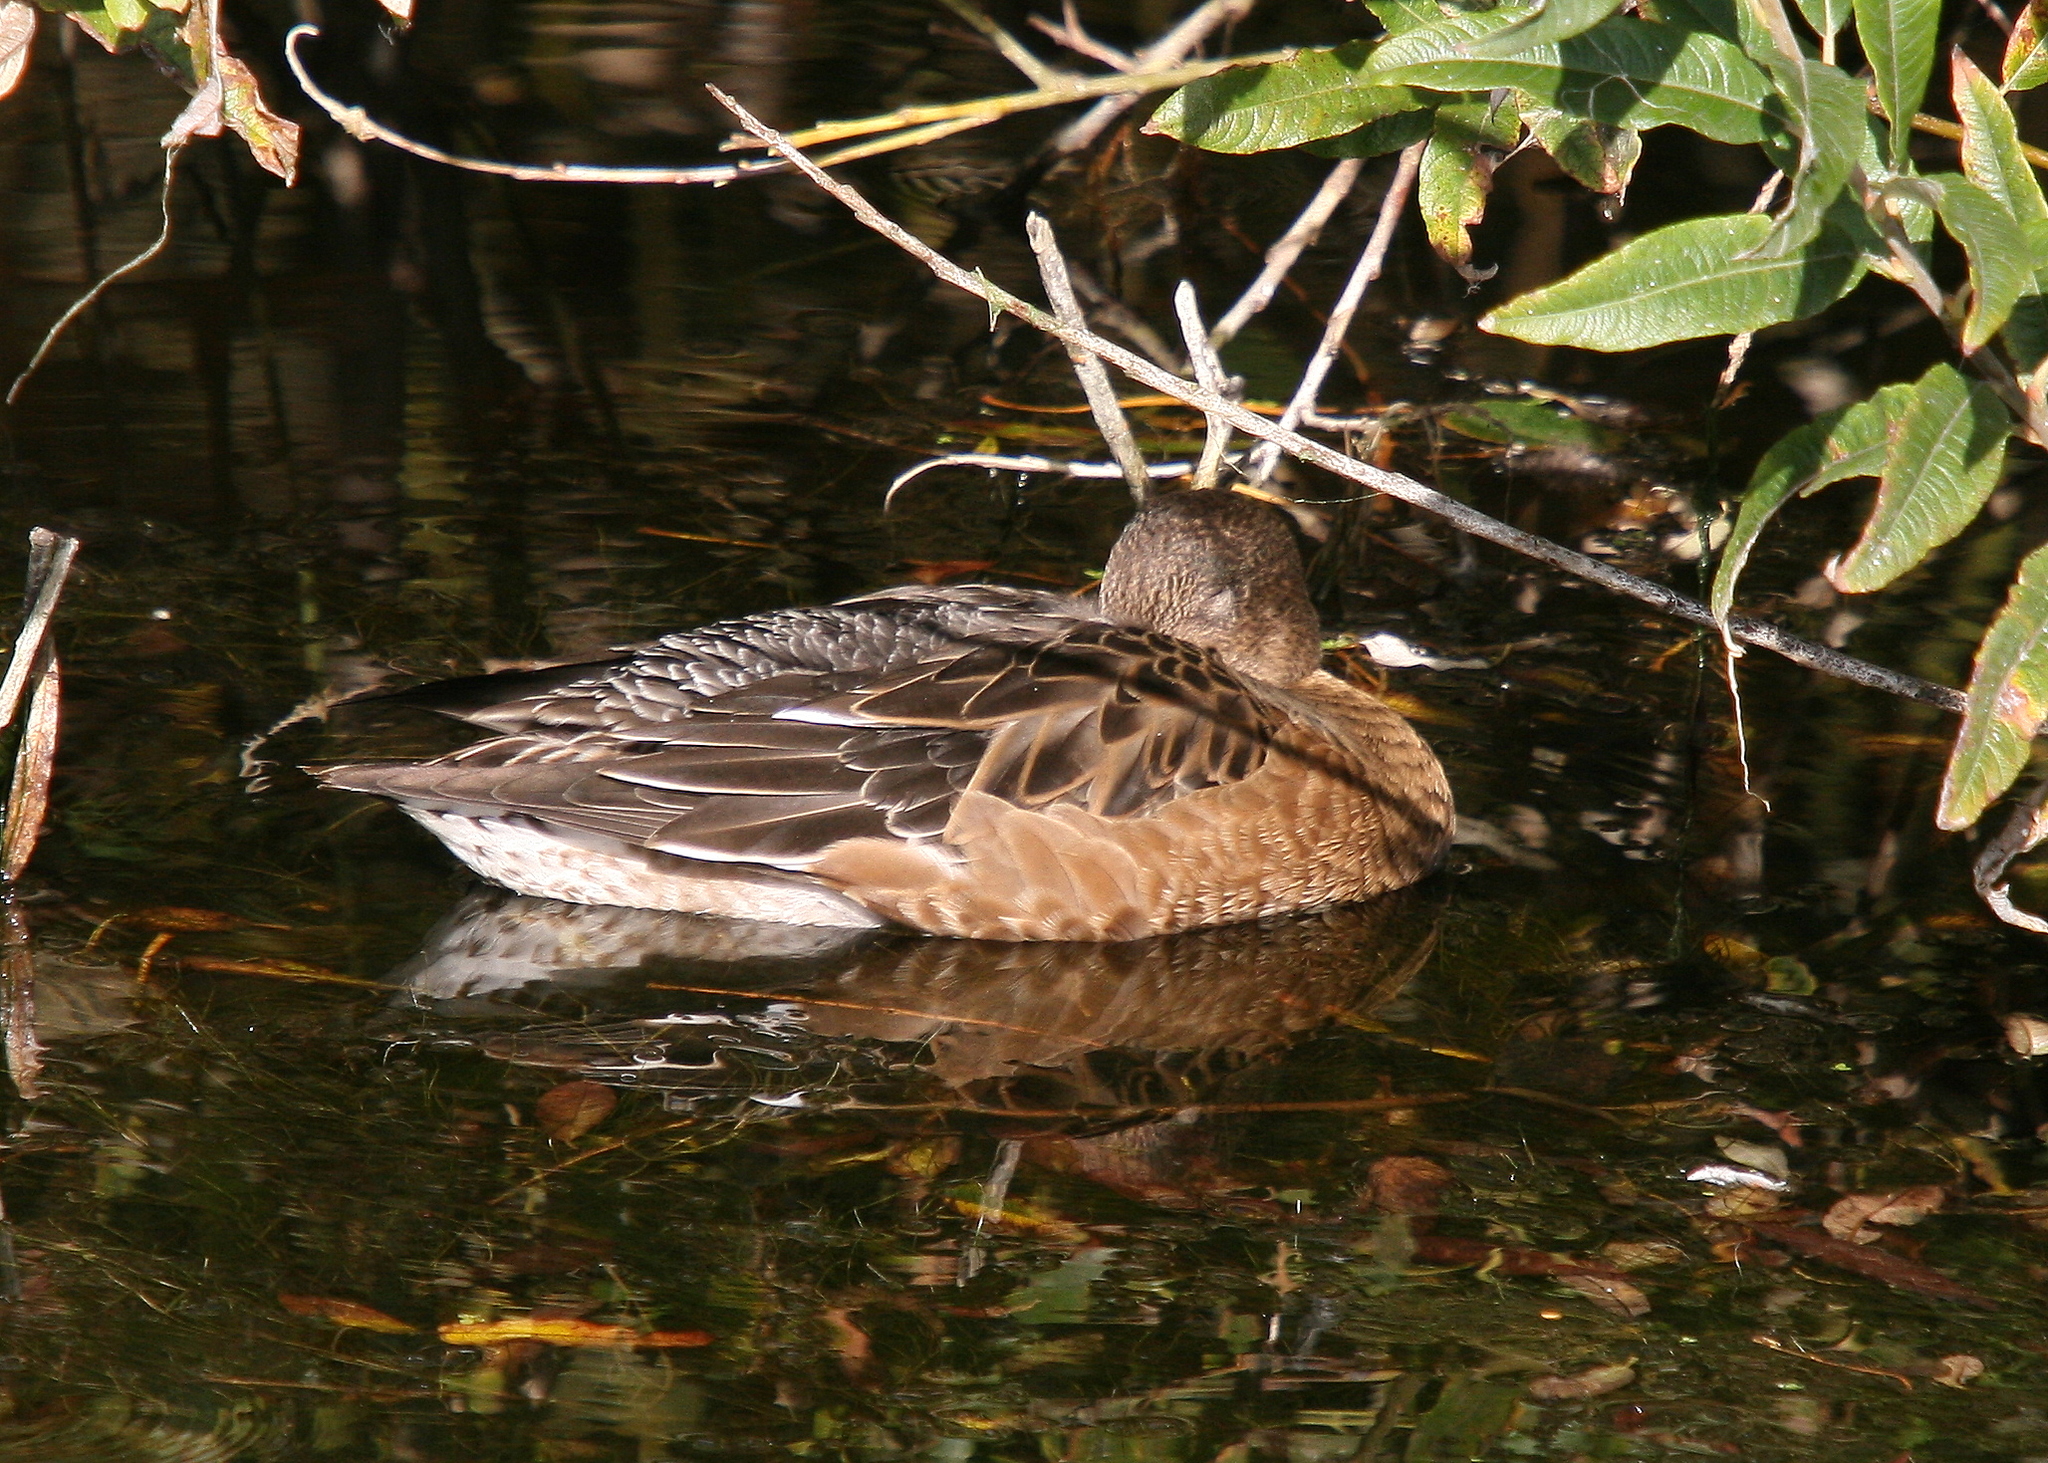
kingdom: Animalia
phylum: Chordata
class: Aves
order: Anseriformes
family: Anatidae
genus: Mareca
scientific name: Mareca penelope
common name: Eurasian wigeon
